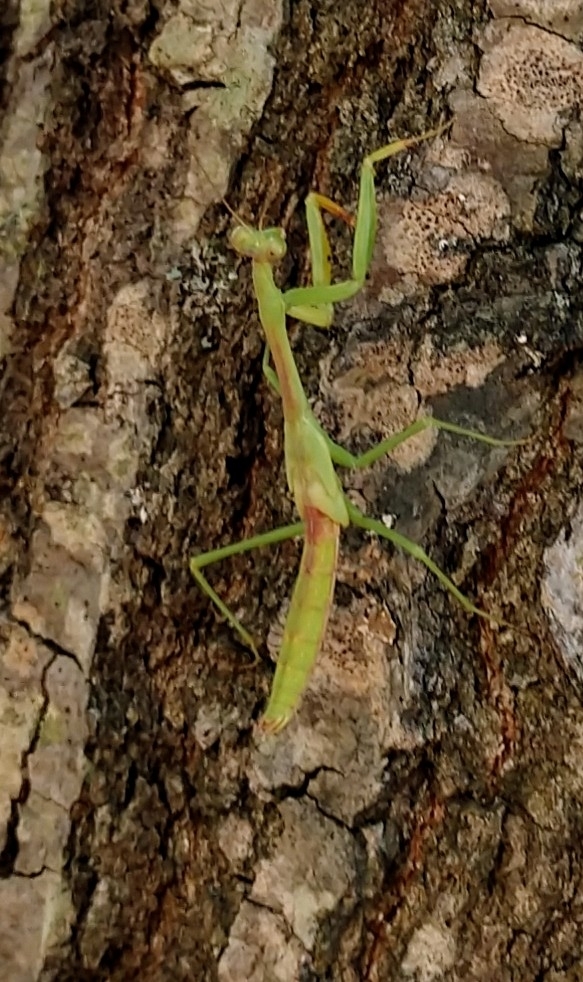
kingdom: Animalia
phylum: Arthropoda
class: Insecta
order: Mantodea
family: Mantidae
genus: Stagmomantis
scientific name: Stagmomantis carolina
